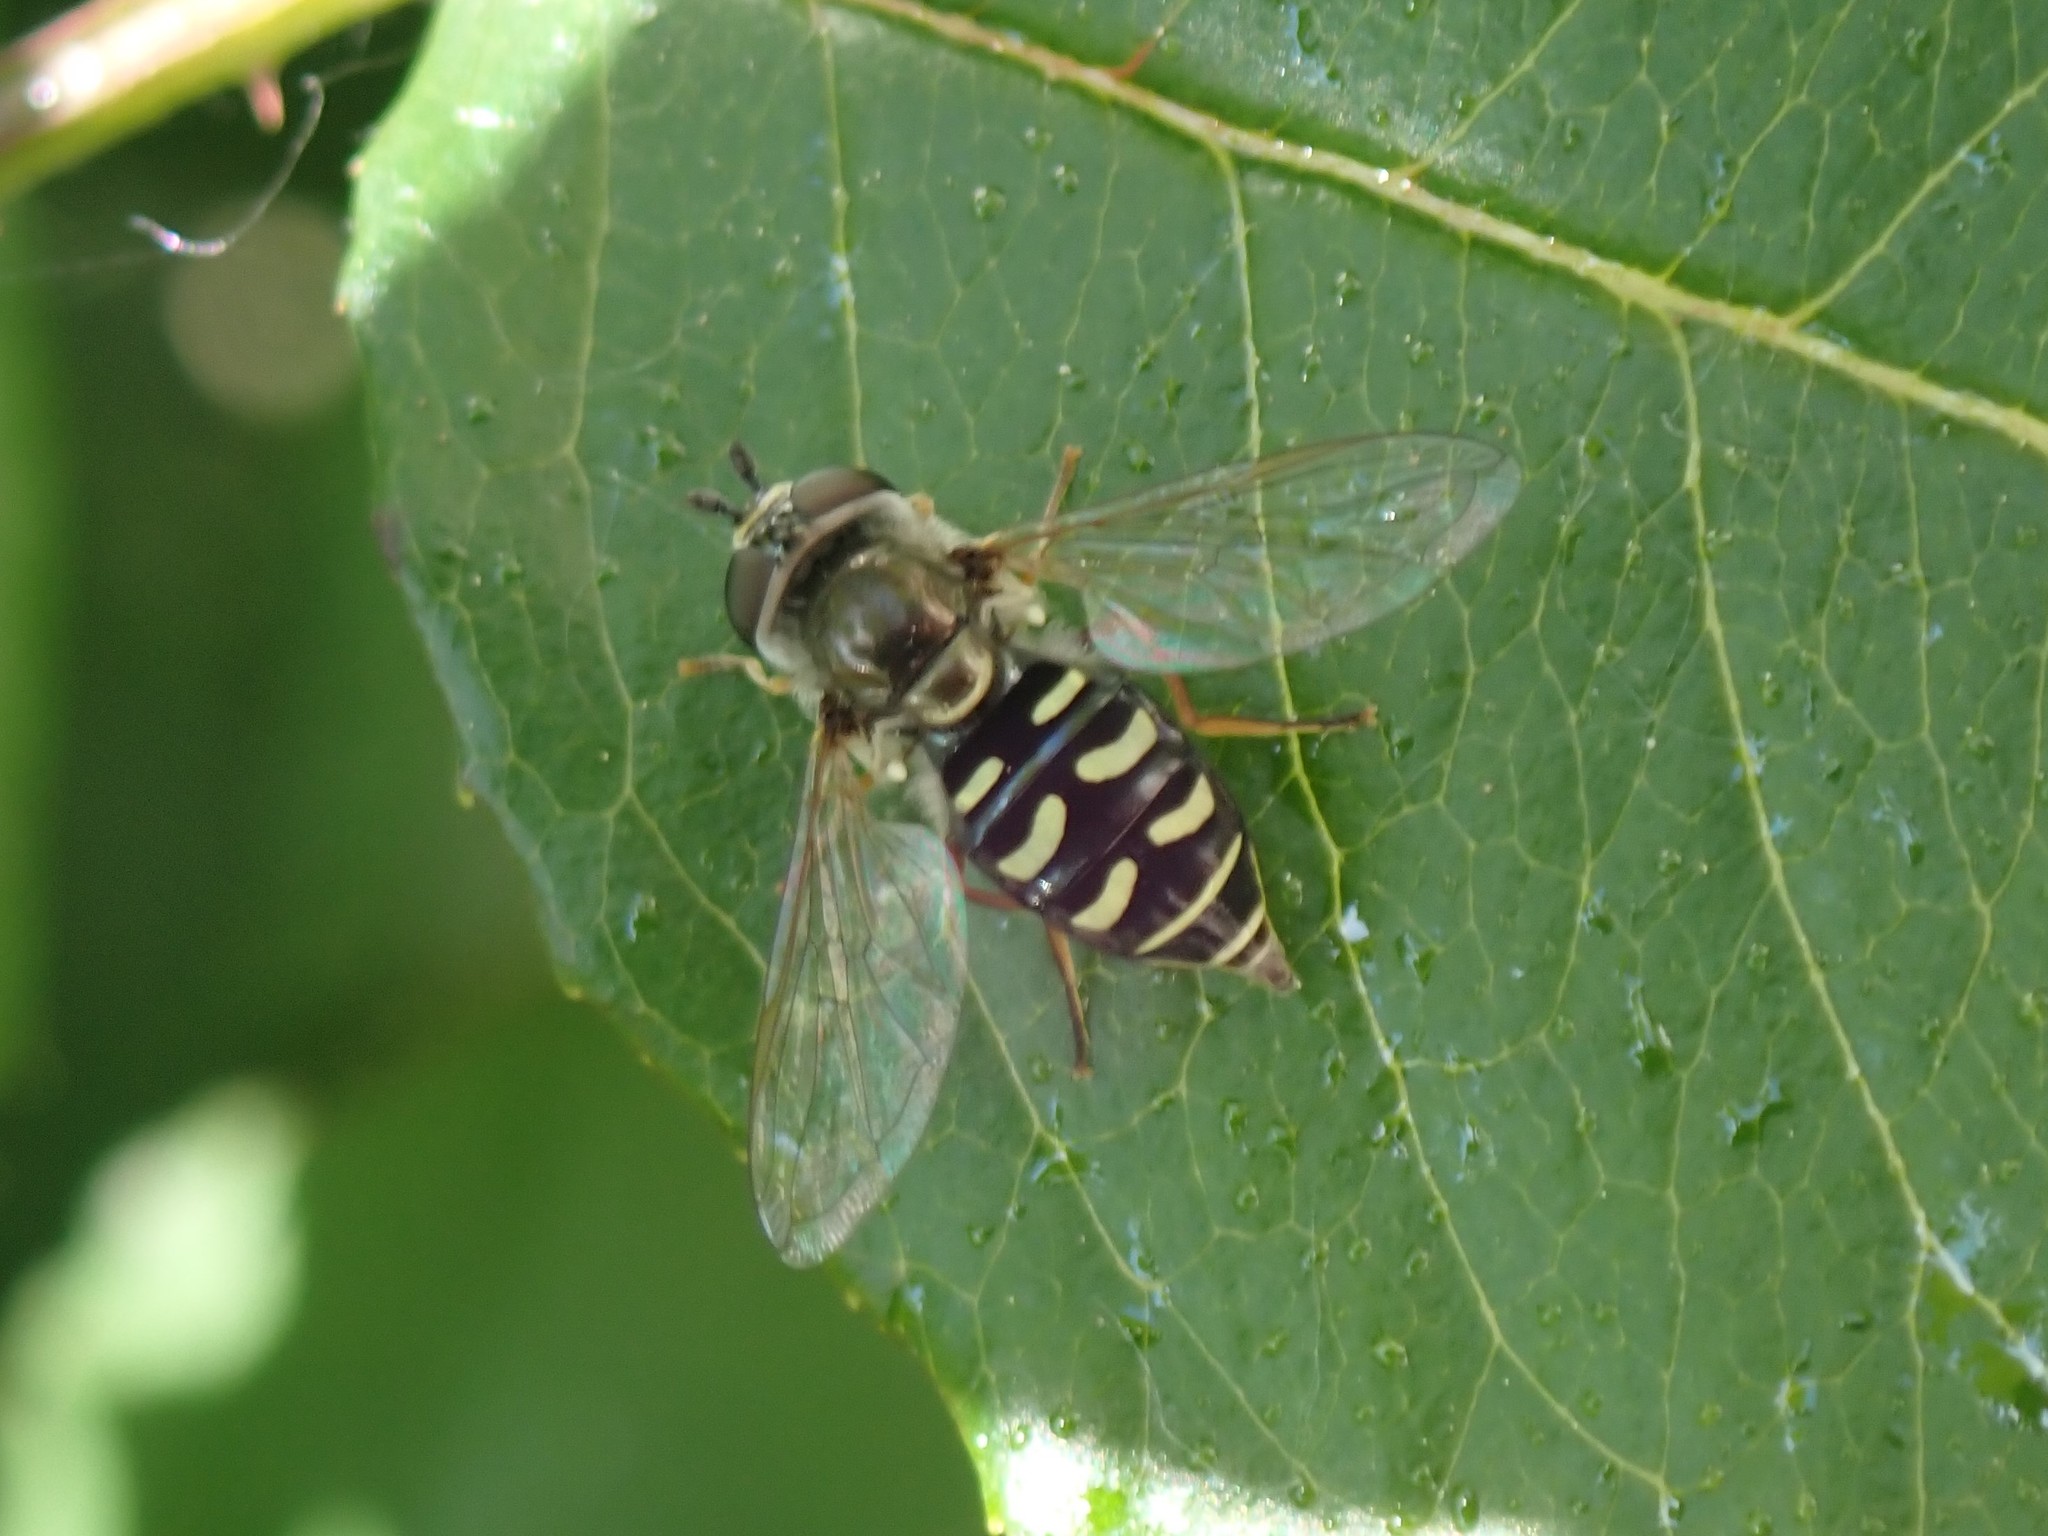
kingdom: Animalia
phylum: Arthropoda
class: Insecta
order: Diptera
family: Syrphidae
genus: Eupeodes
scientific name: Eupeodes volucris
